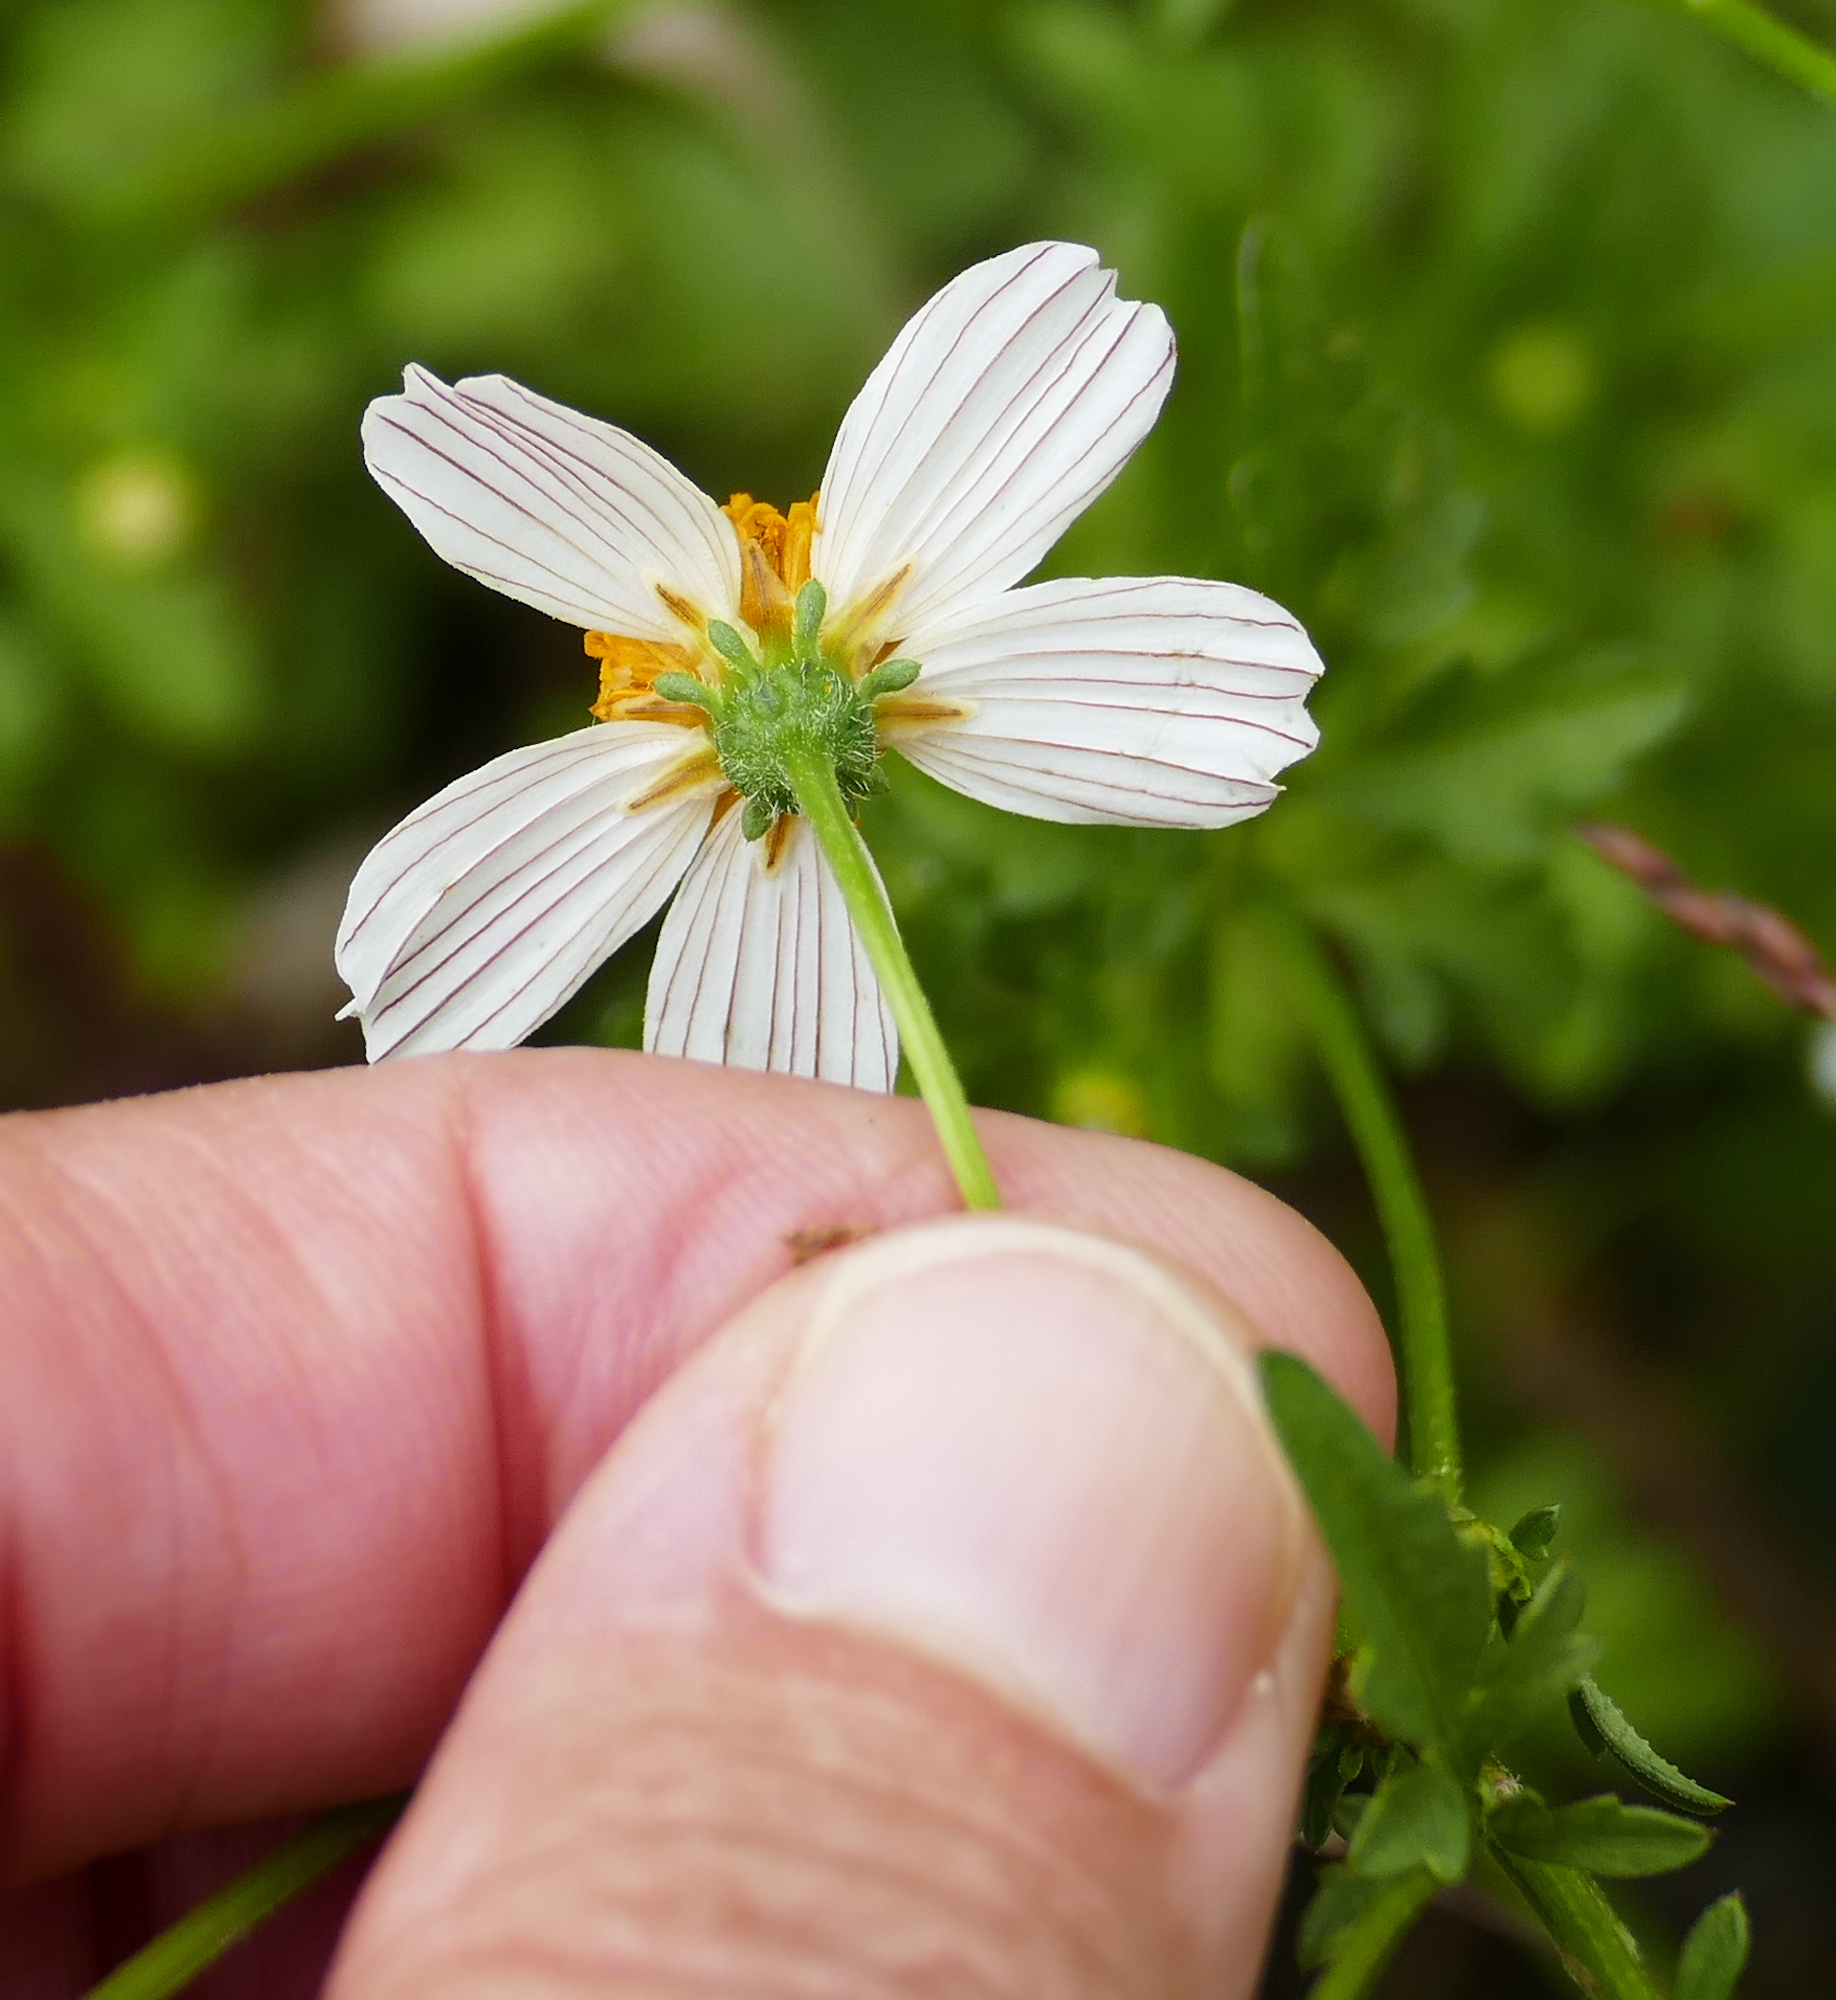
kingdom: Plantae
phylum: Tracheophyta
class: Magnoliopsida
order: Asterales
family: Asteraceae
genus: Bidens
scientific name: Bidens bigelovii
